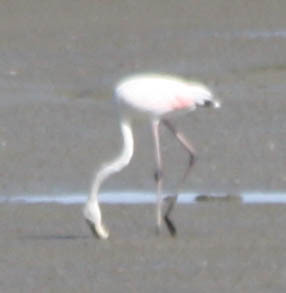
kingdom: Animalia
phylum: Chordata
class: Aves
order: Phoenicopteriformes
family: Phoenicopteridae
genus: Phoenicopterus
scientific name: Phoenicopterus roseus
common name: Greater flamingo
